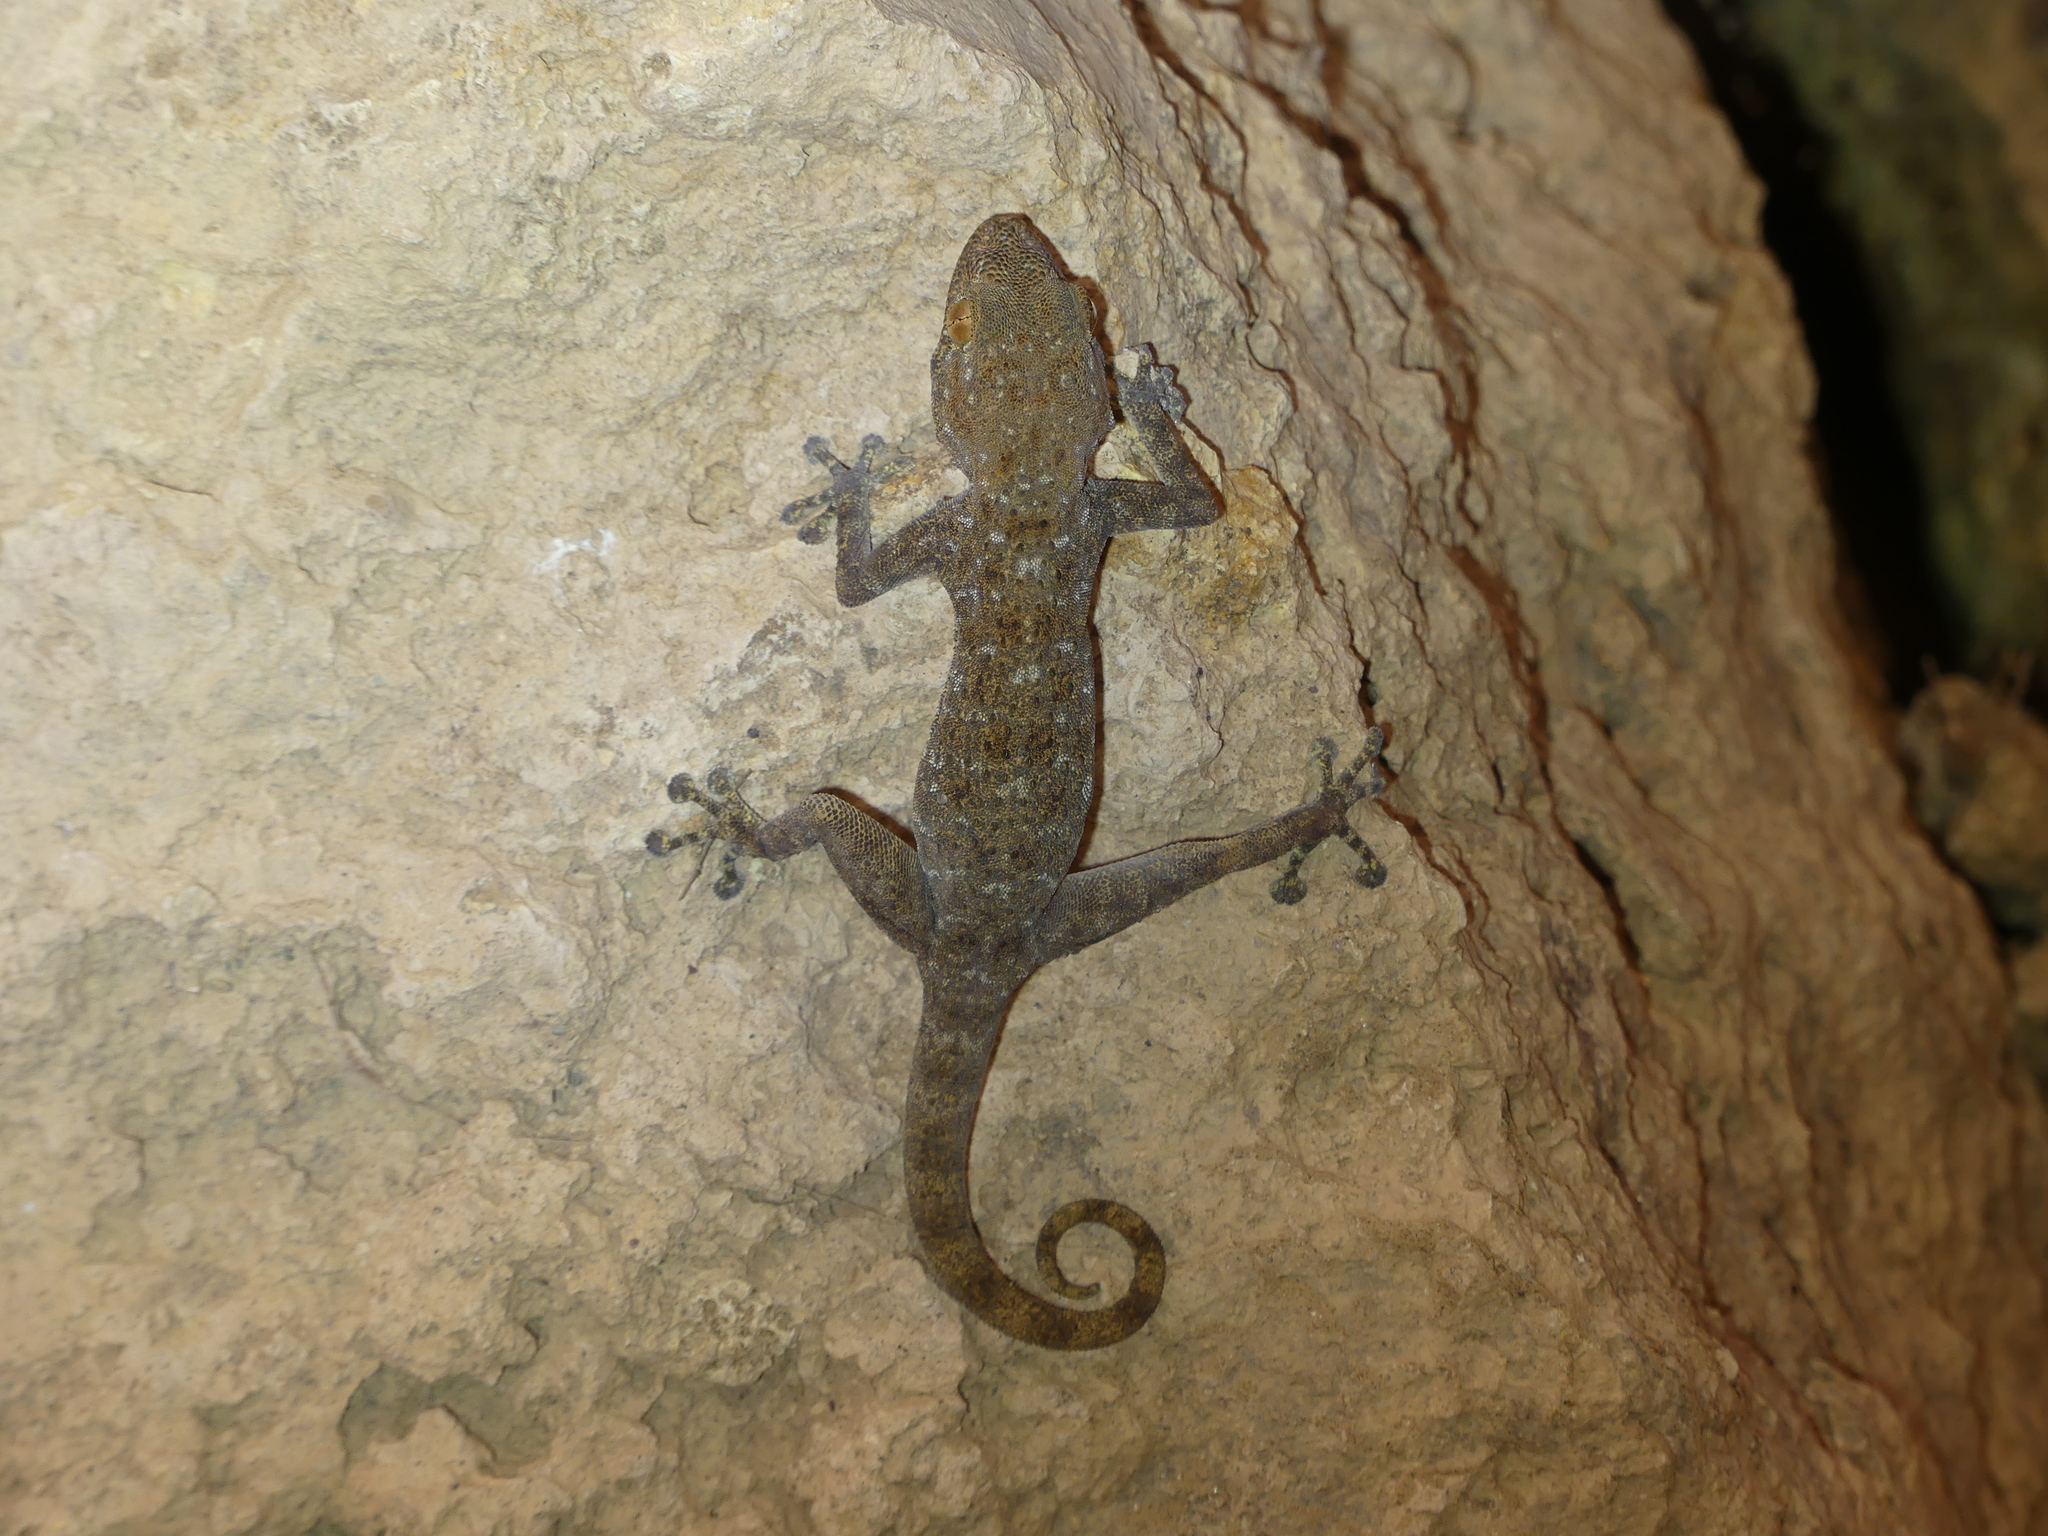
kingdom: Animalia
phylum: Chordata
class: Squamata
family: Phyllodactylidae
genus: Ptyodactylus
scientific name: Ptyodactylus oudrii
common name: Algerian fan-fingered gecko
